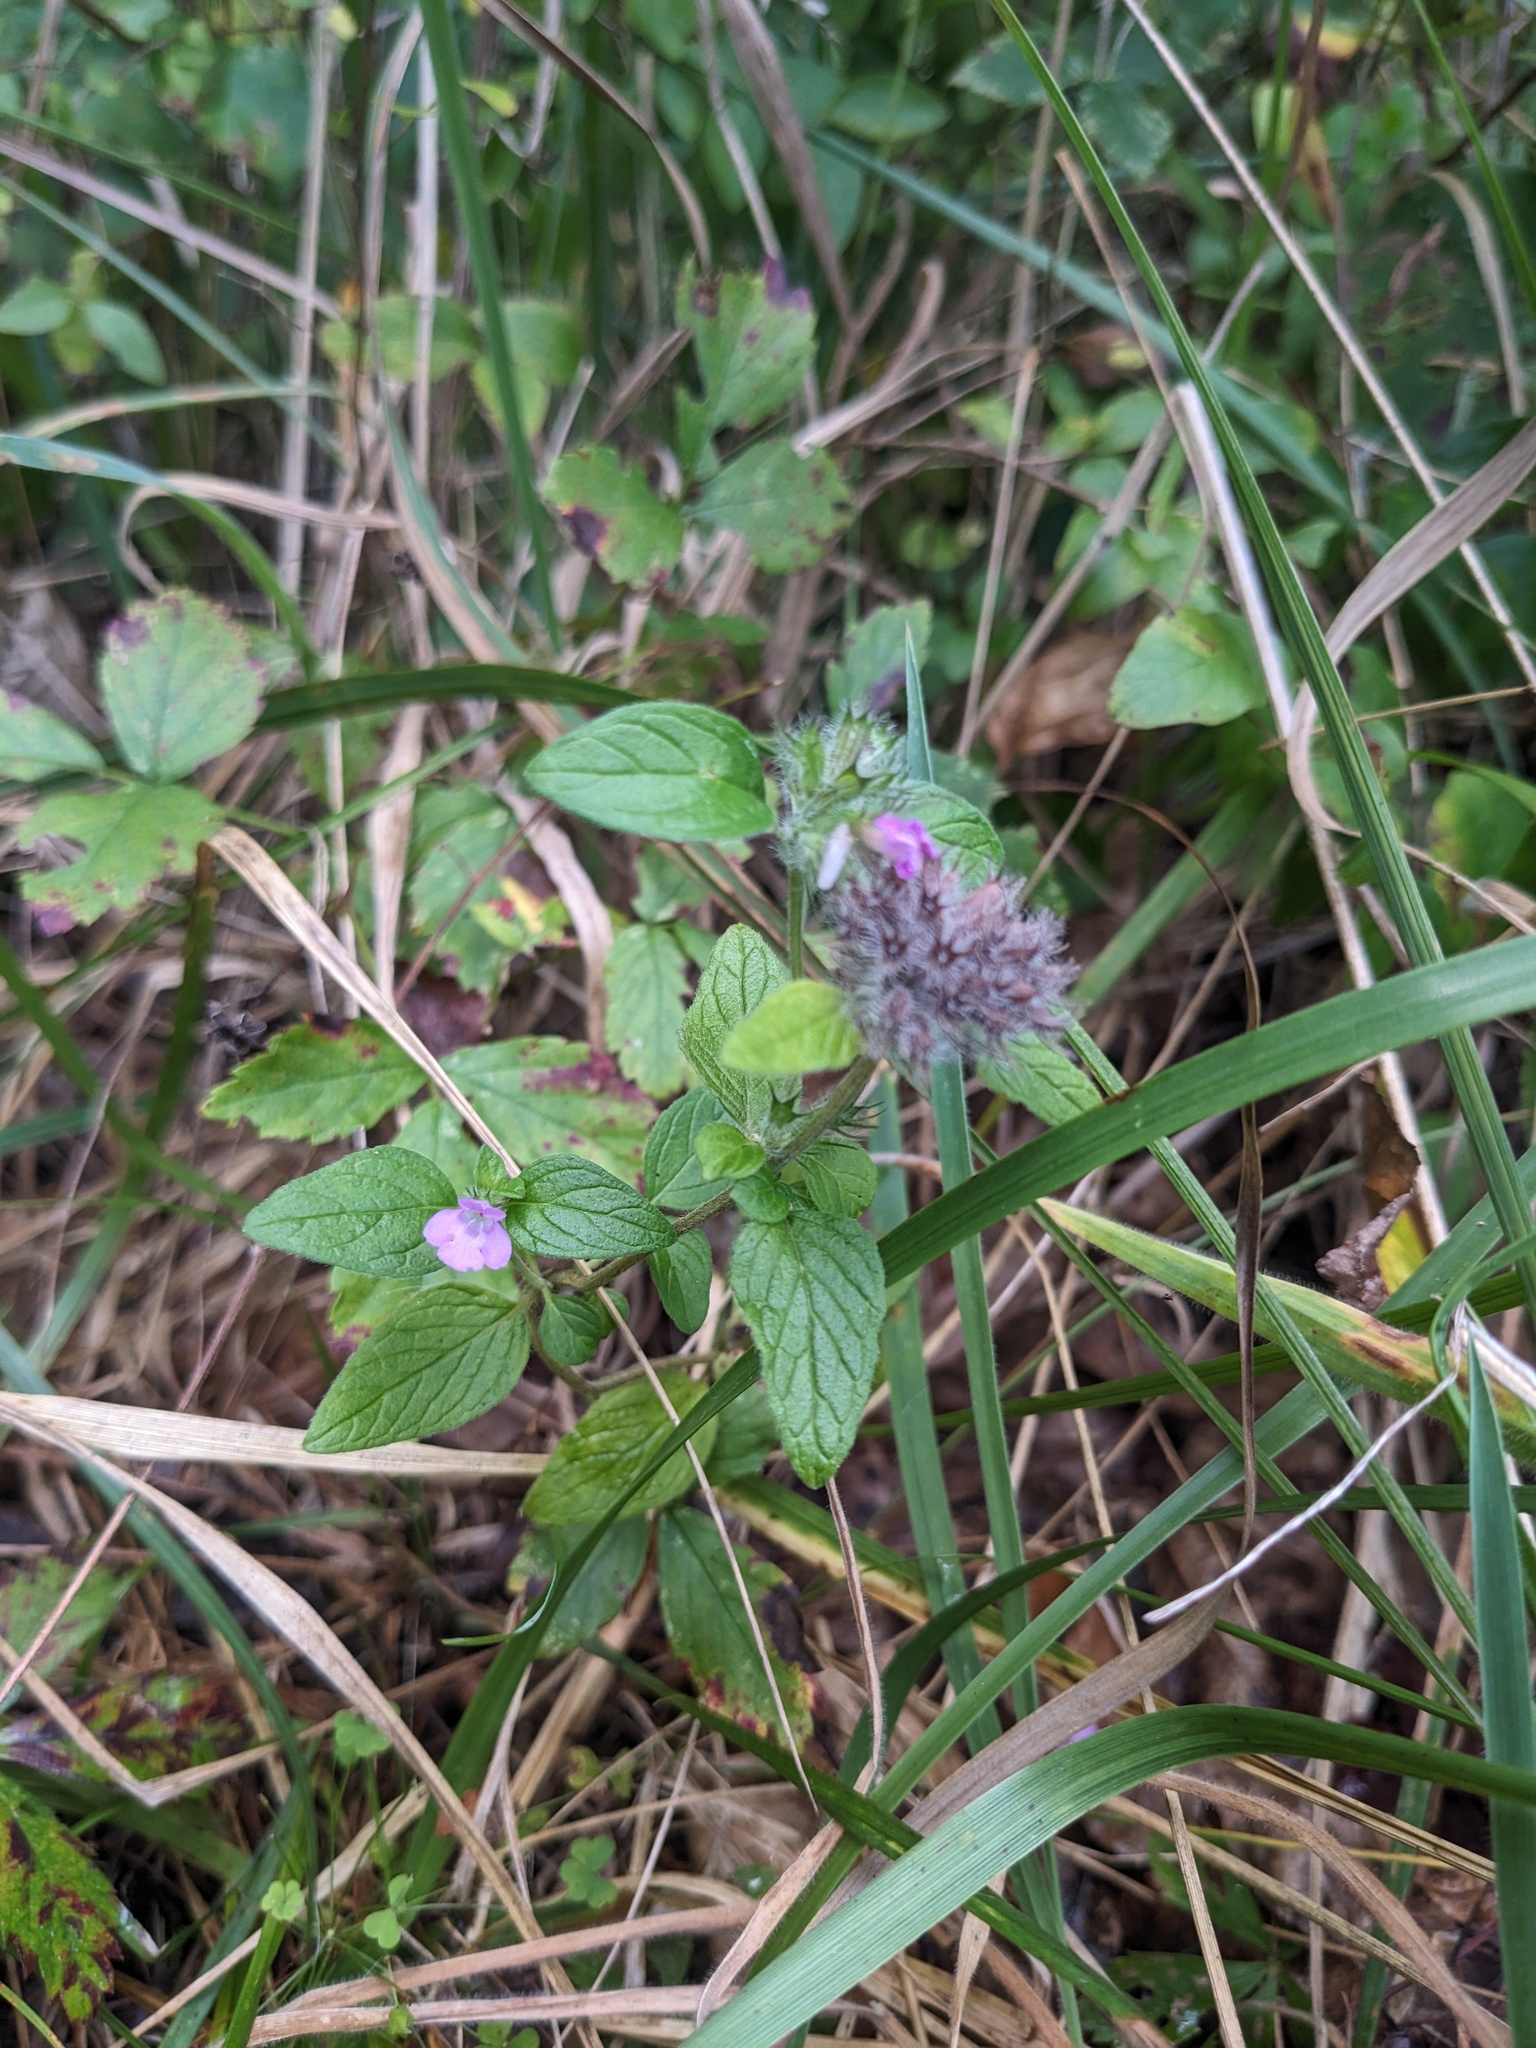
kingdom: Plantae
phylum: Tracheophyta
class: Magnoliopsida
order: Lamiales
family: Lamiaceae
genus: Clinopodium
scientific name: Clinopodium vulgare
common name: Wild basil
